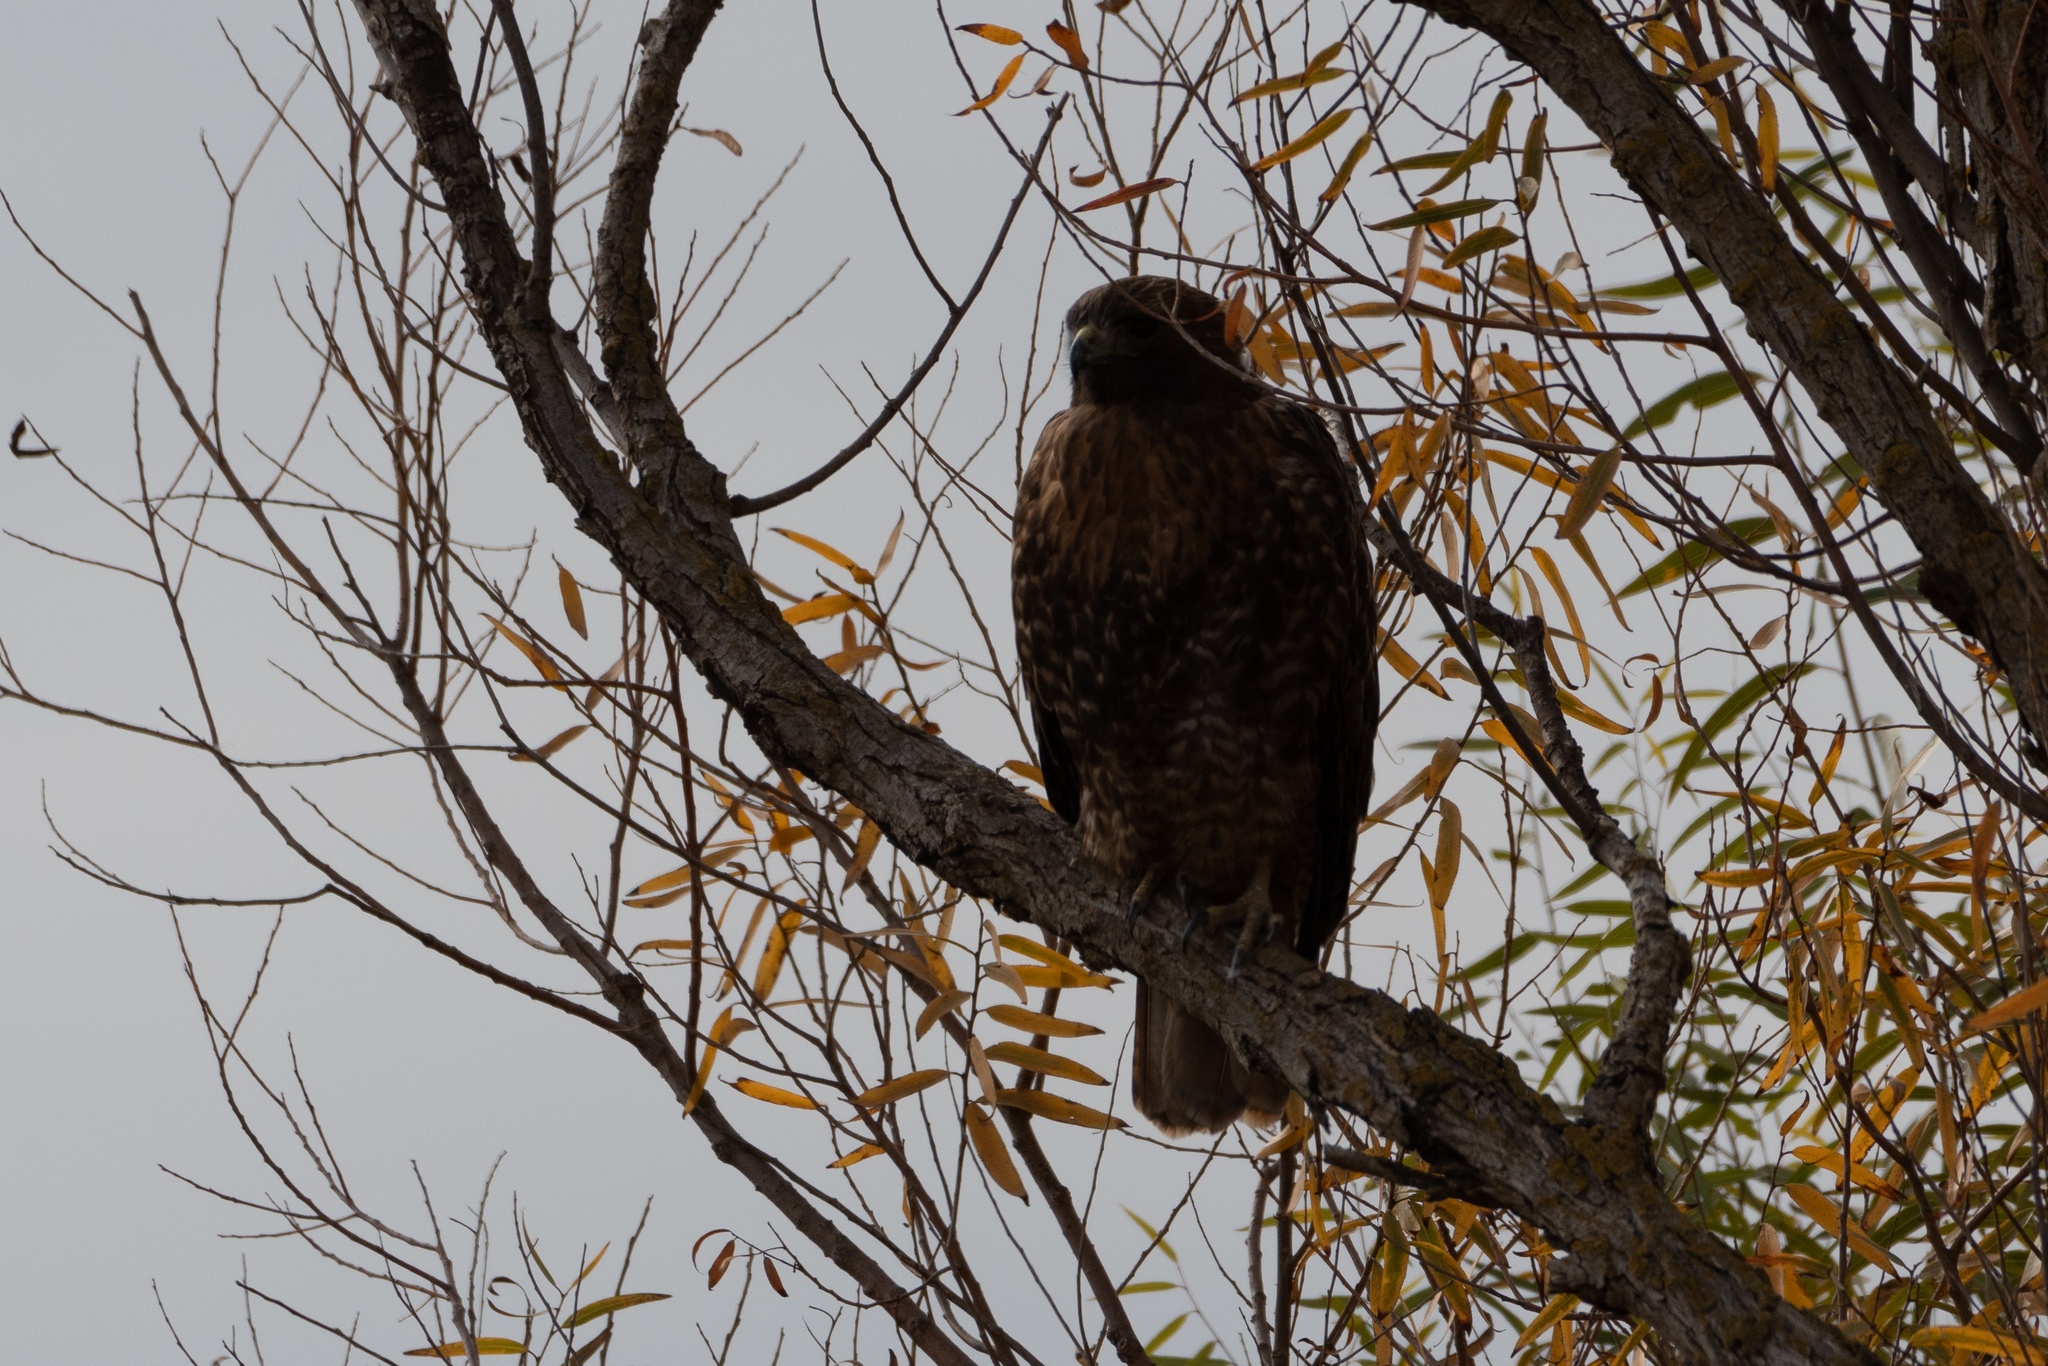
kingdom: Animalia
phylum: Chordata
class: Aves
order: Accipitriformes
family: Accipitridae
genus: Buteo
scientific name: Buteo jamaicensis
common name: Red-tailed hawk
